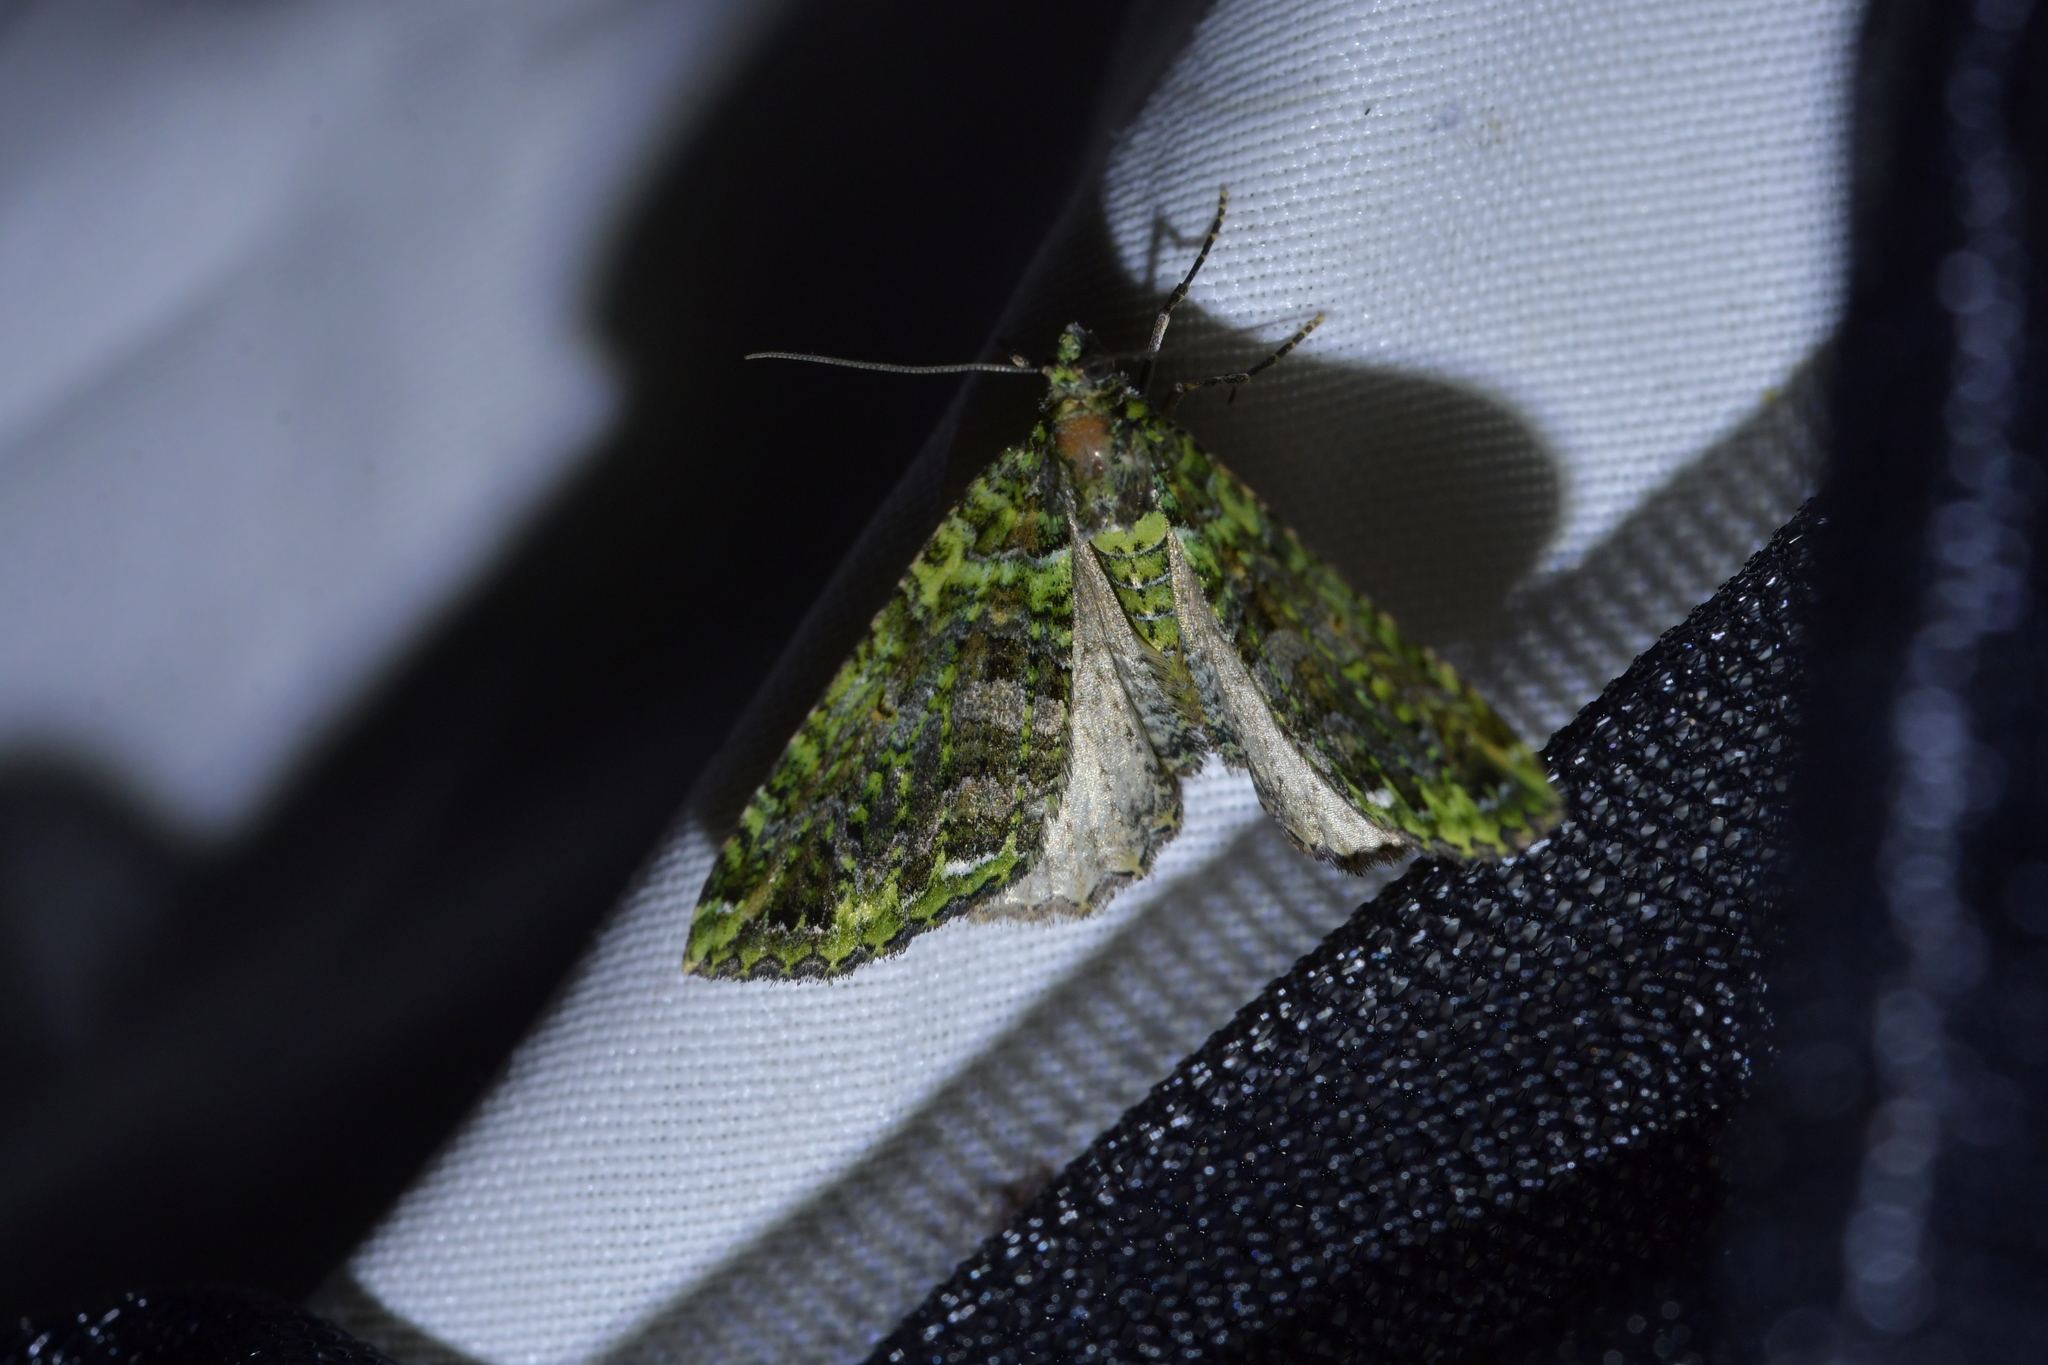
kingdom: Animalia
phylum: Arthropoda
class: Insecta
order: Lepidoptera
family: Geometridae
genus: Austrocidaria
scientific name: Austrocidaria similata
